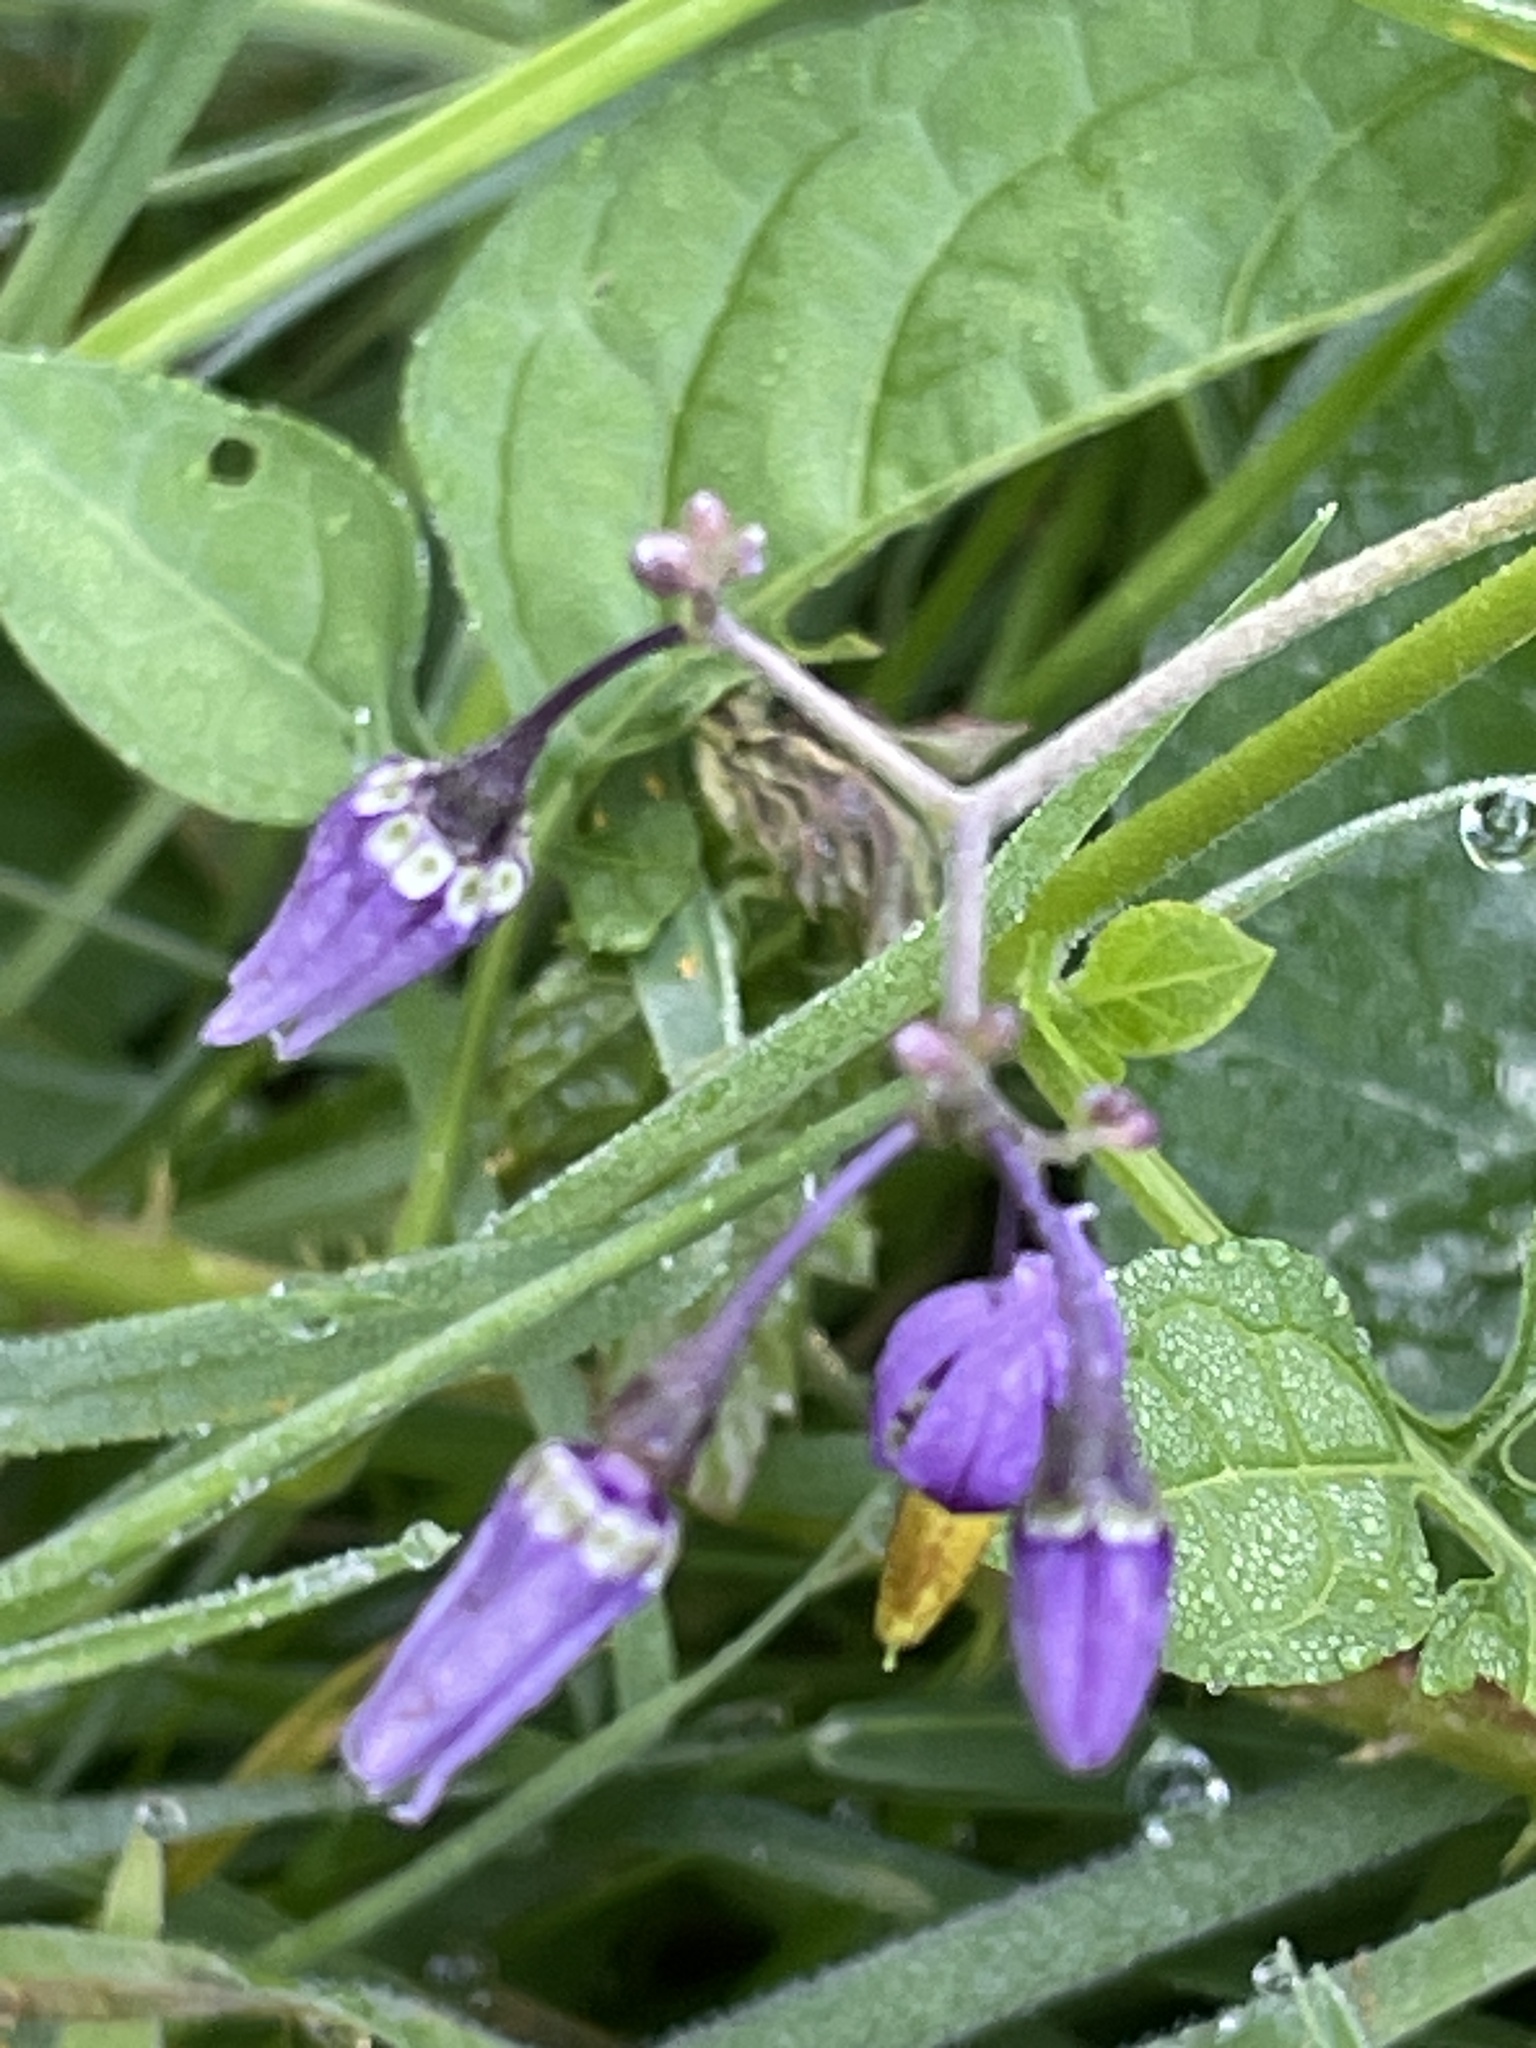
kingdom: Plantae
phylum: Tracheophyta
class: Magnoliopsida
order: Solanales
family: Solanaceae
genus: Solanum
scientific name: Solanum dulcamara
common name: Climbing nightshade
